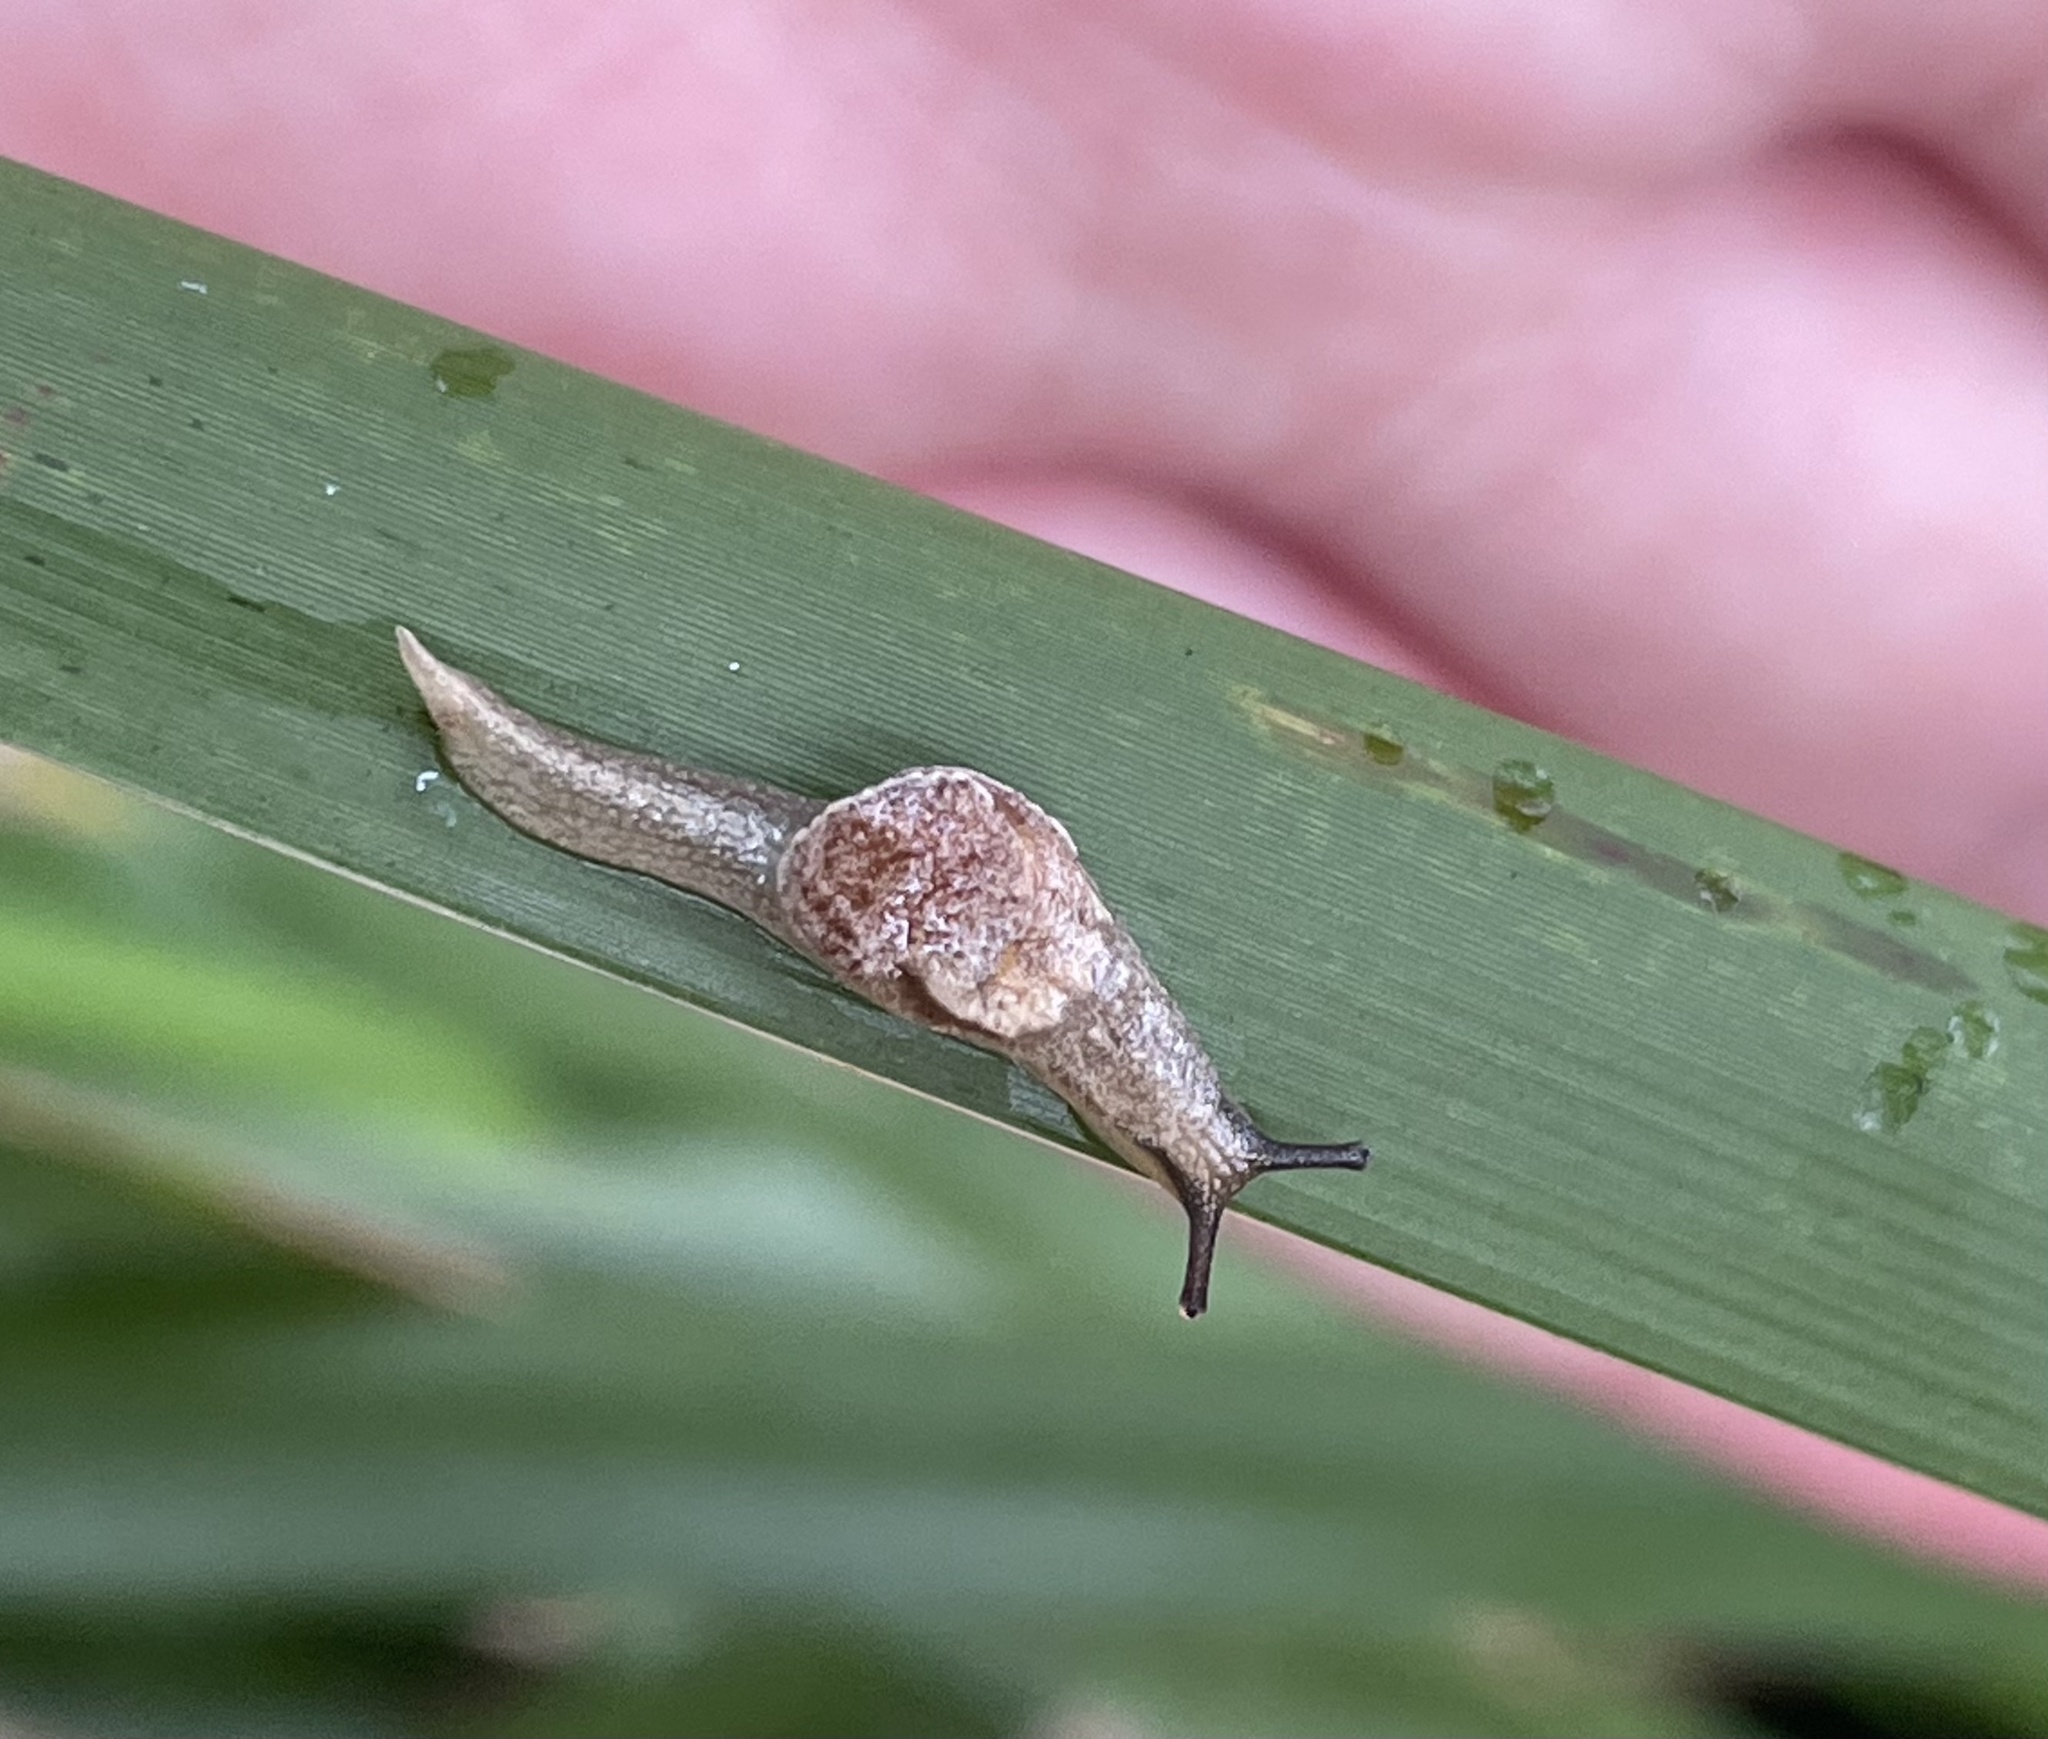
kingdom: Animalia
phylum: Mollusca
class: Gastropoda
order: Stylommatophora
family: Helicarionidae
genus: Ubiquitarion
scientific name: Ubiquitarion iridis
